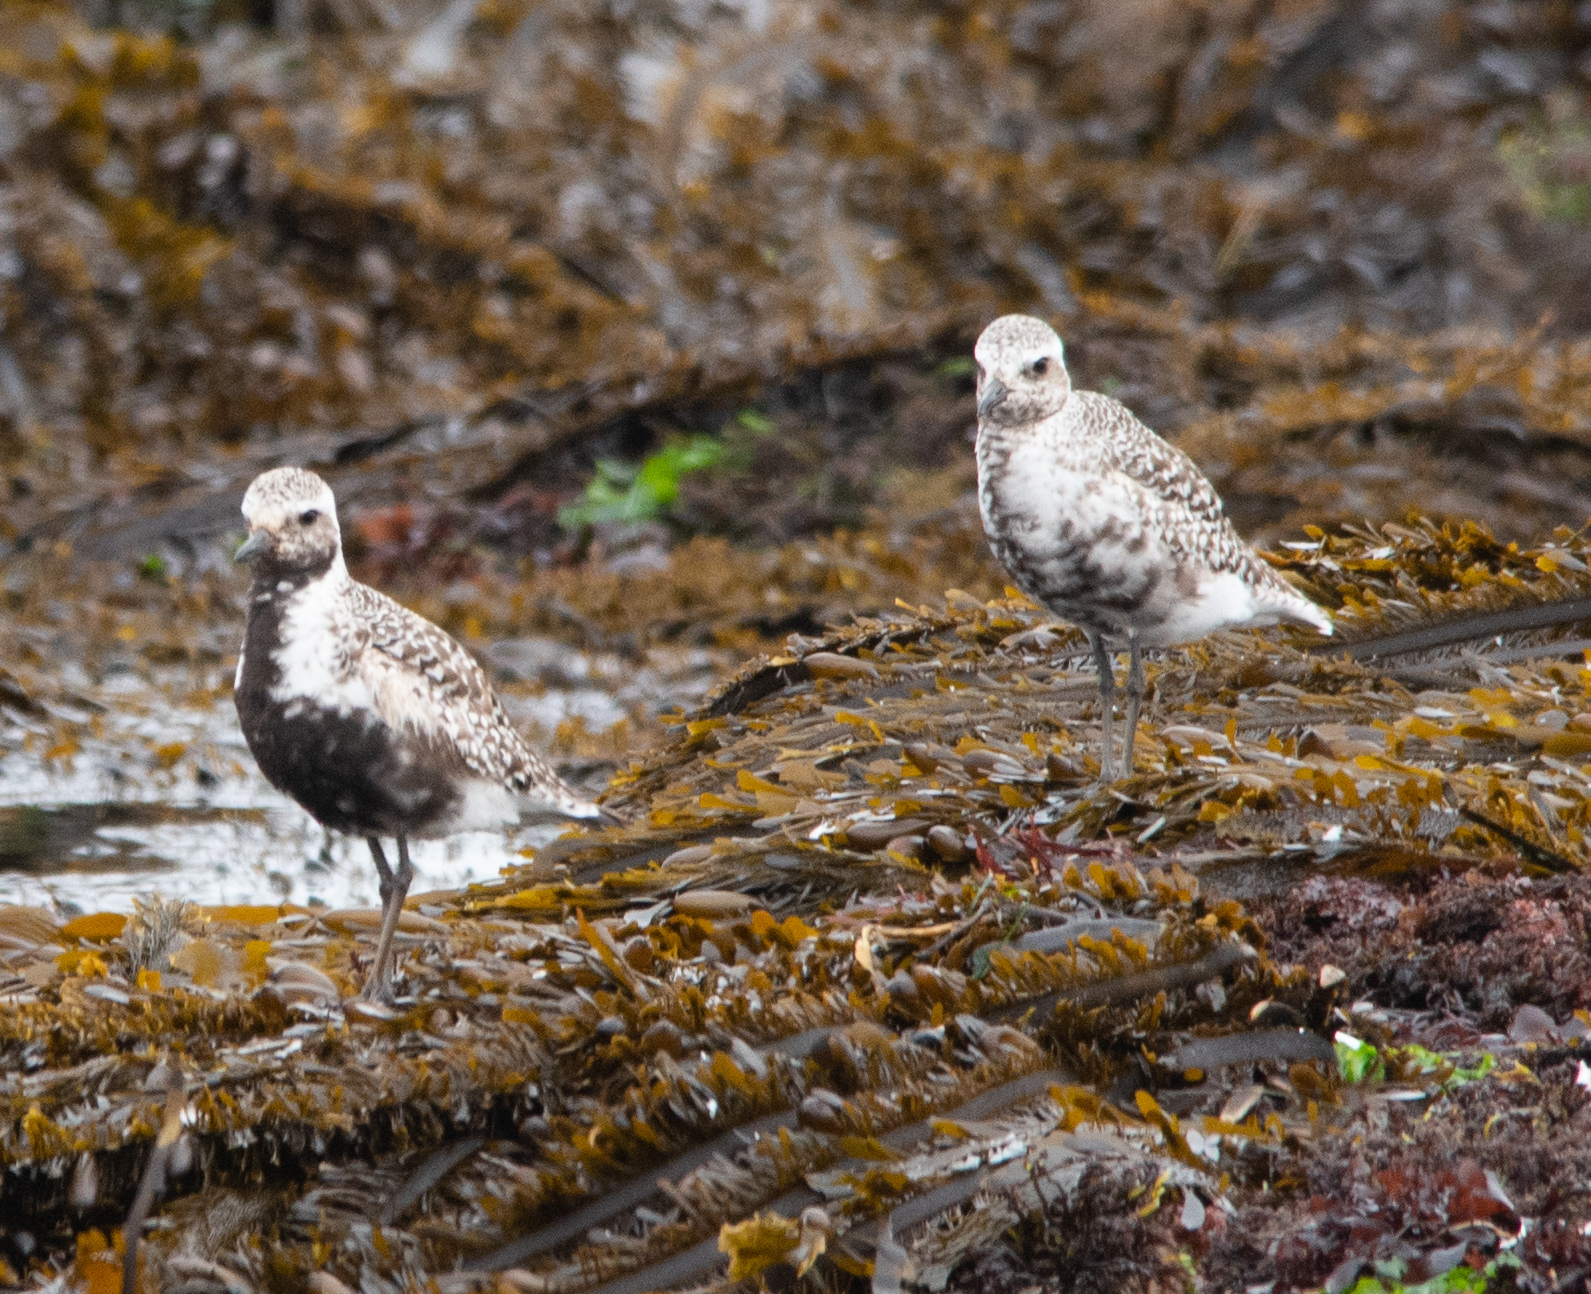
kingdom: Animalia
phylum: Chordata
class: Aves
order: Charadriiformes
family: Charadriidae
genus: Pluvialis
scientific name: Pluvialis squatarola
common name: Grey plover
